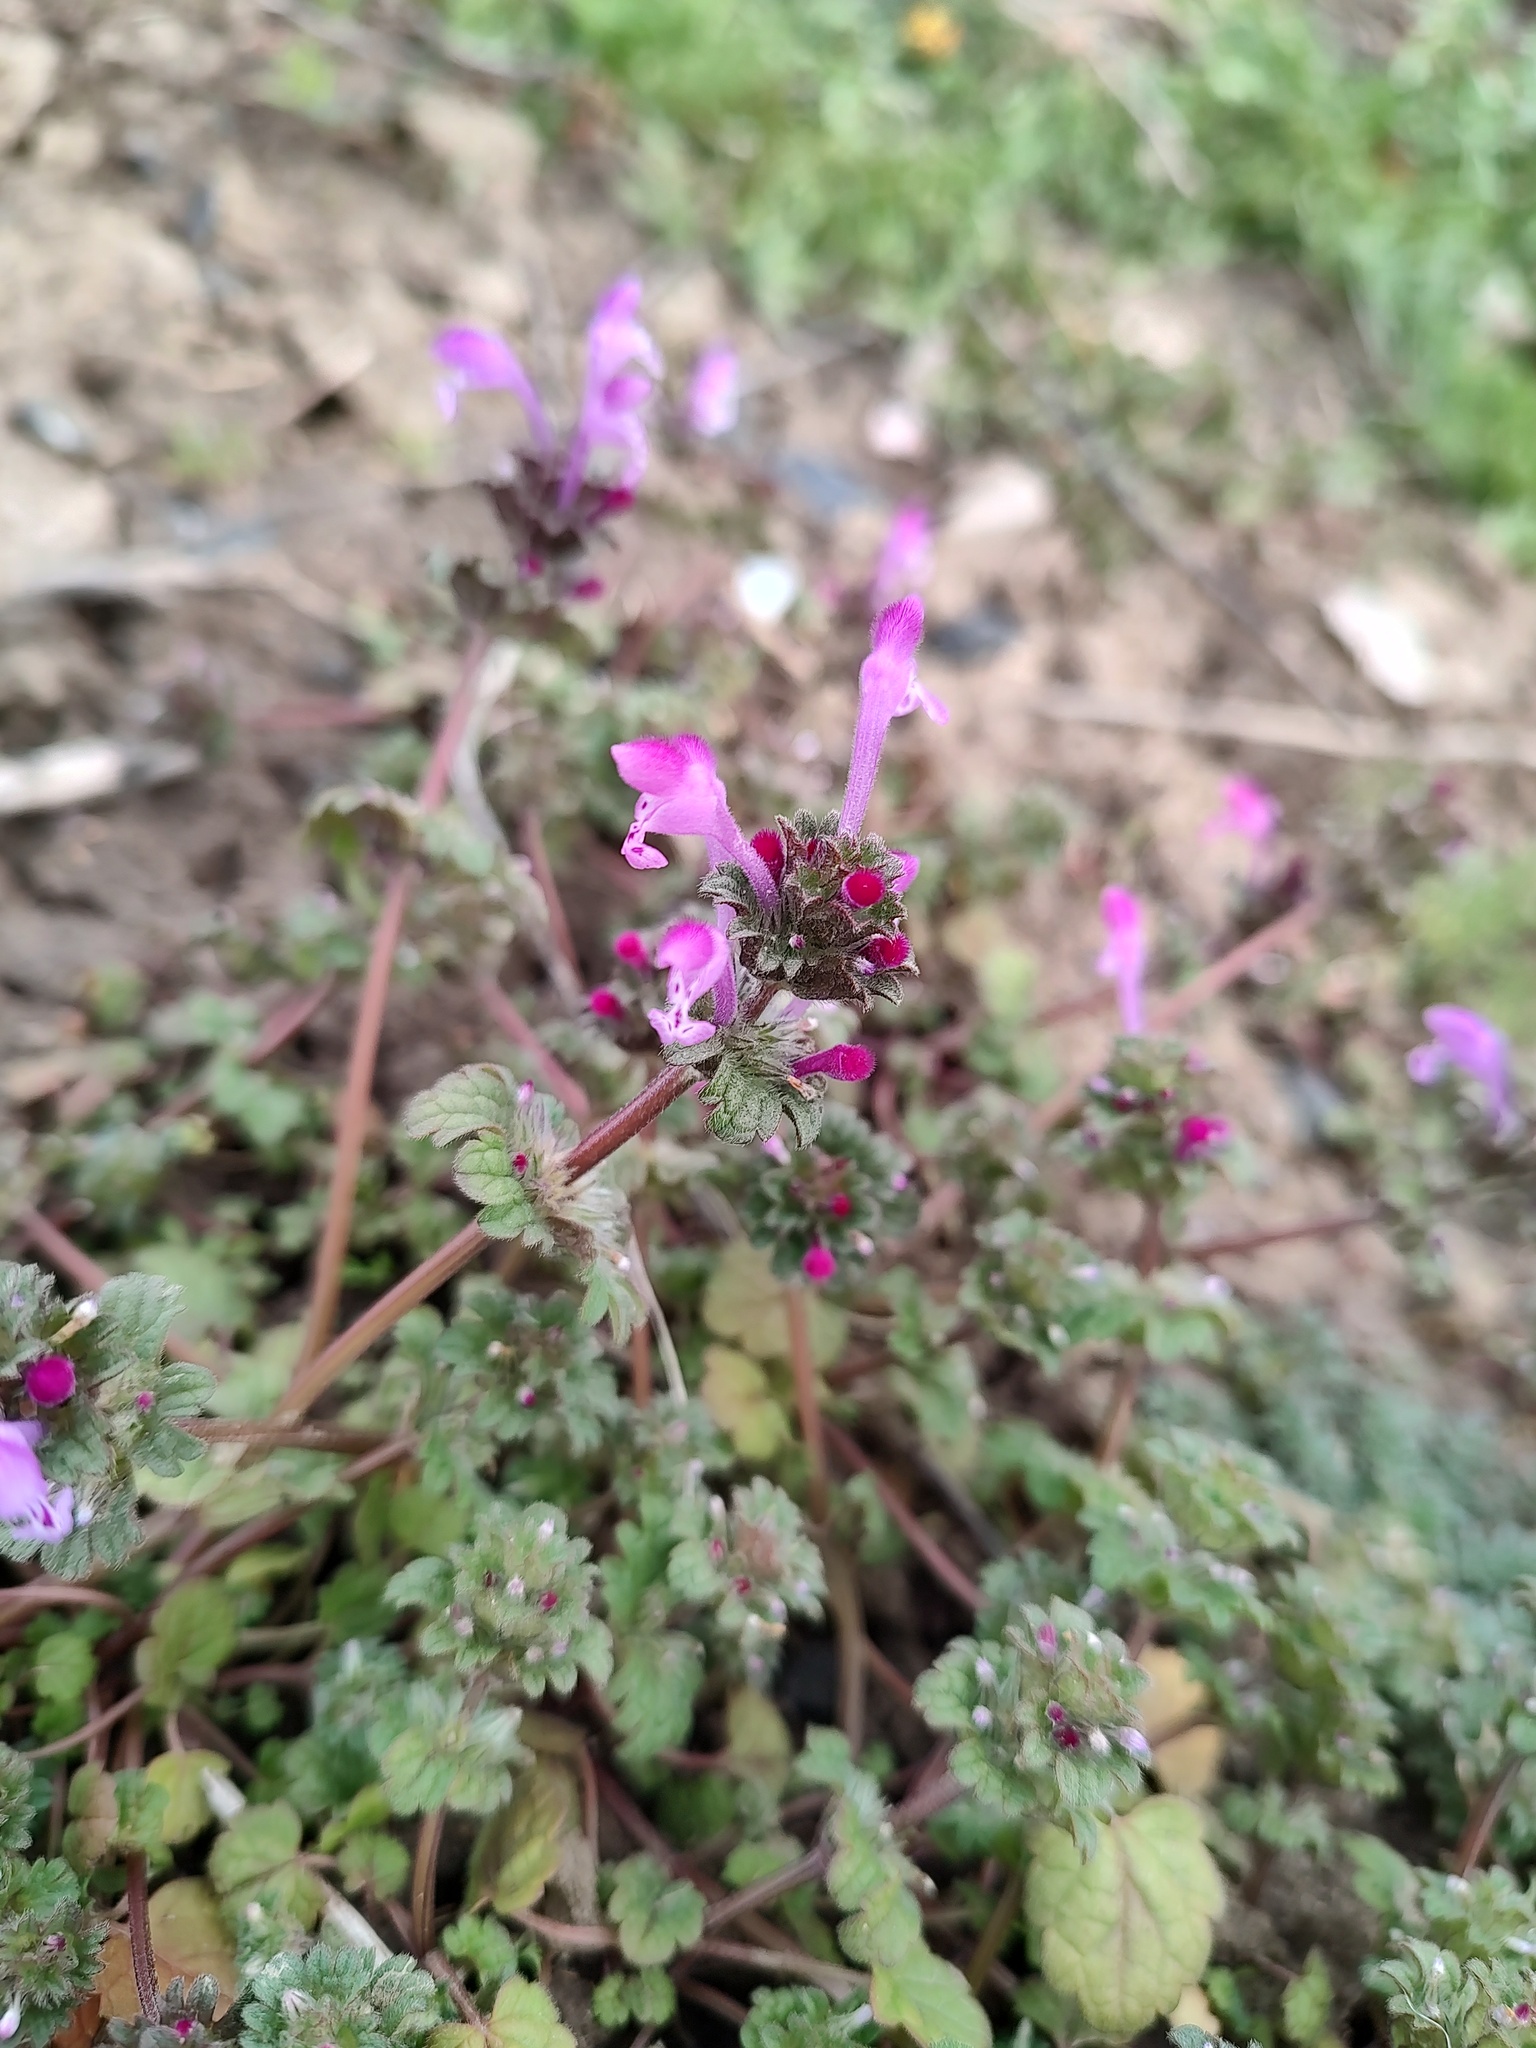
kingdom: Plantae
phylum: Tracheophyta
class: Magnoliopsida
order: Lamiales
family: Lamiaceae
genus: Lamium
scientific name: Lamium amplexicaule
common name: Henbit dead-nettle
